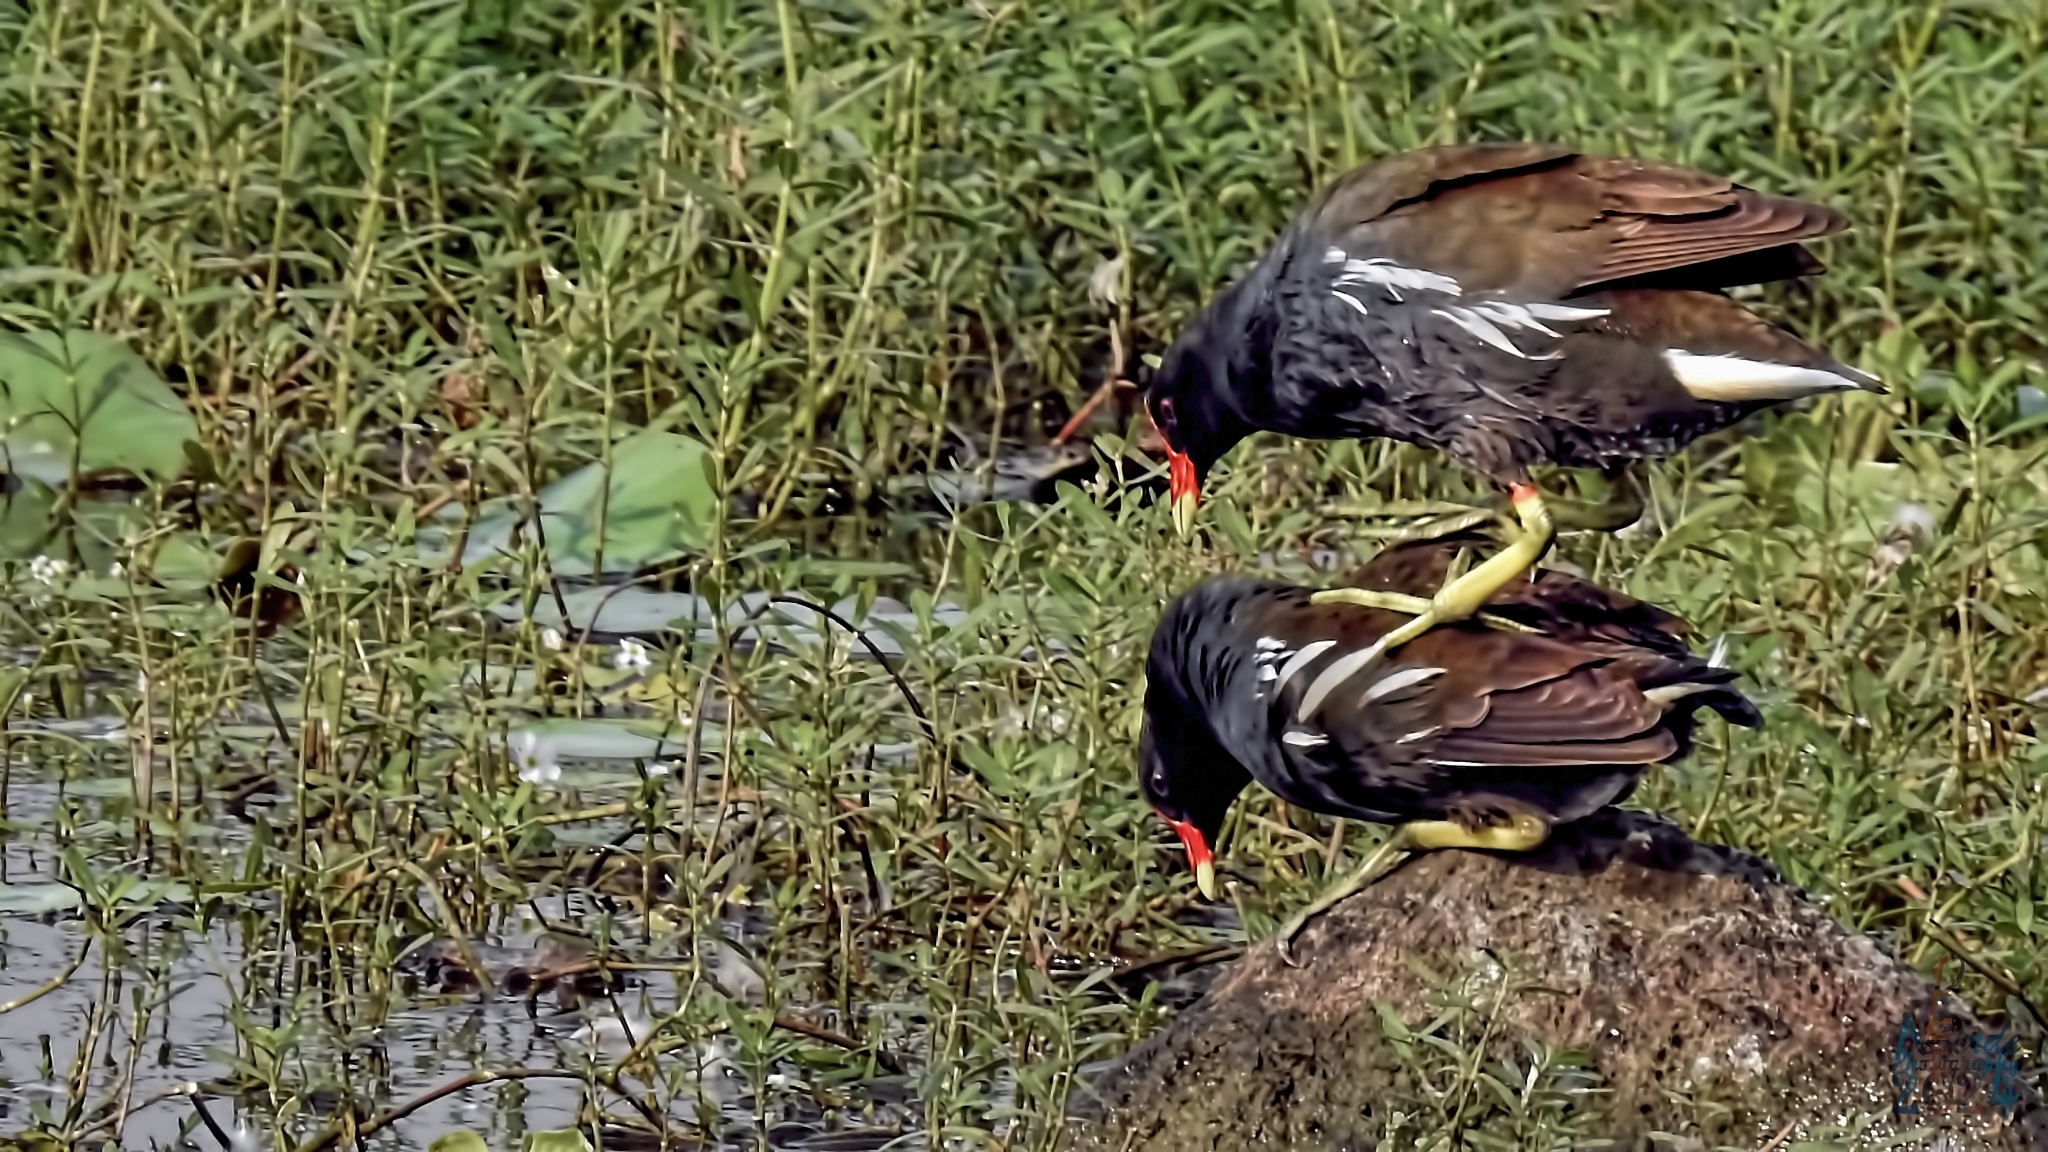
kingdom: Animalia
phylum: Chordata
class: Aves
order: Gruiformes
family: Rallidae
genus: Gallinula
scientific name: Gallinula chloropus
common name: Common moorhen
